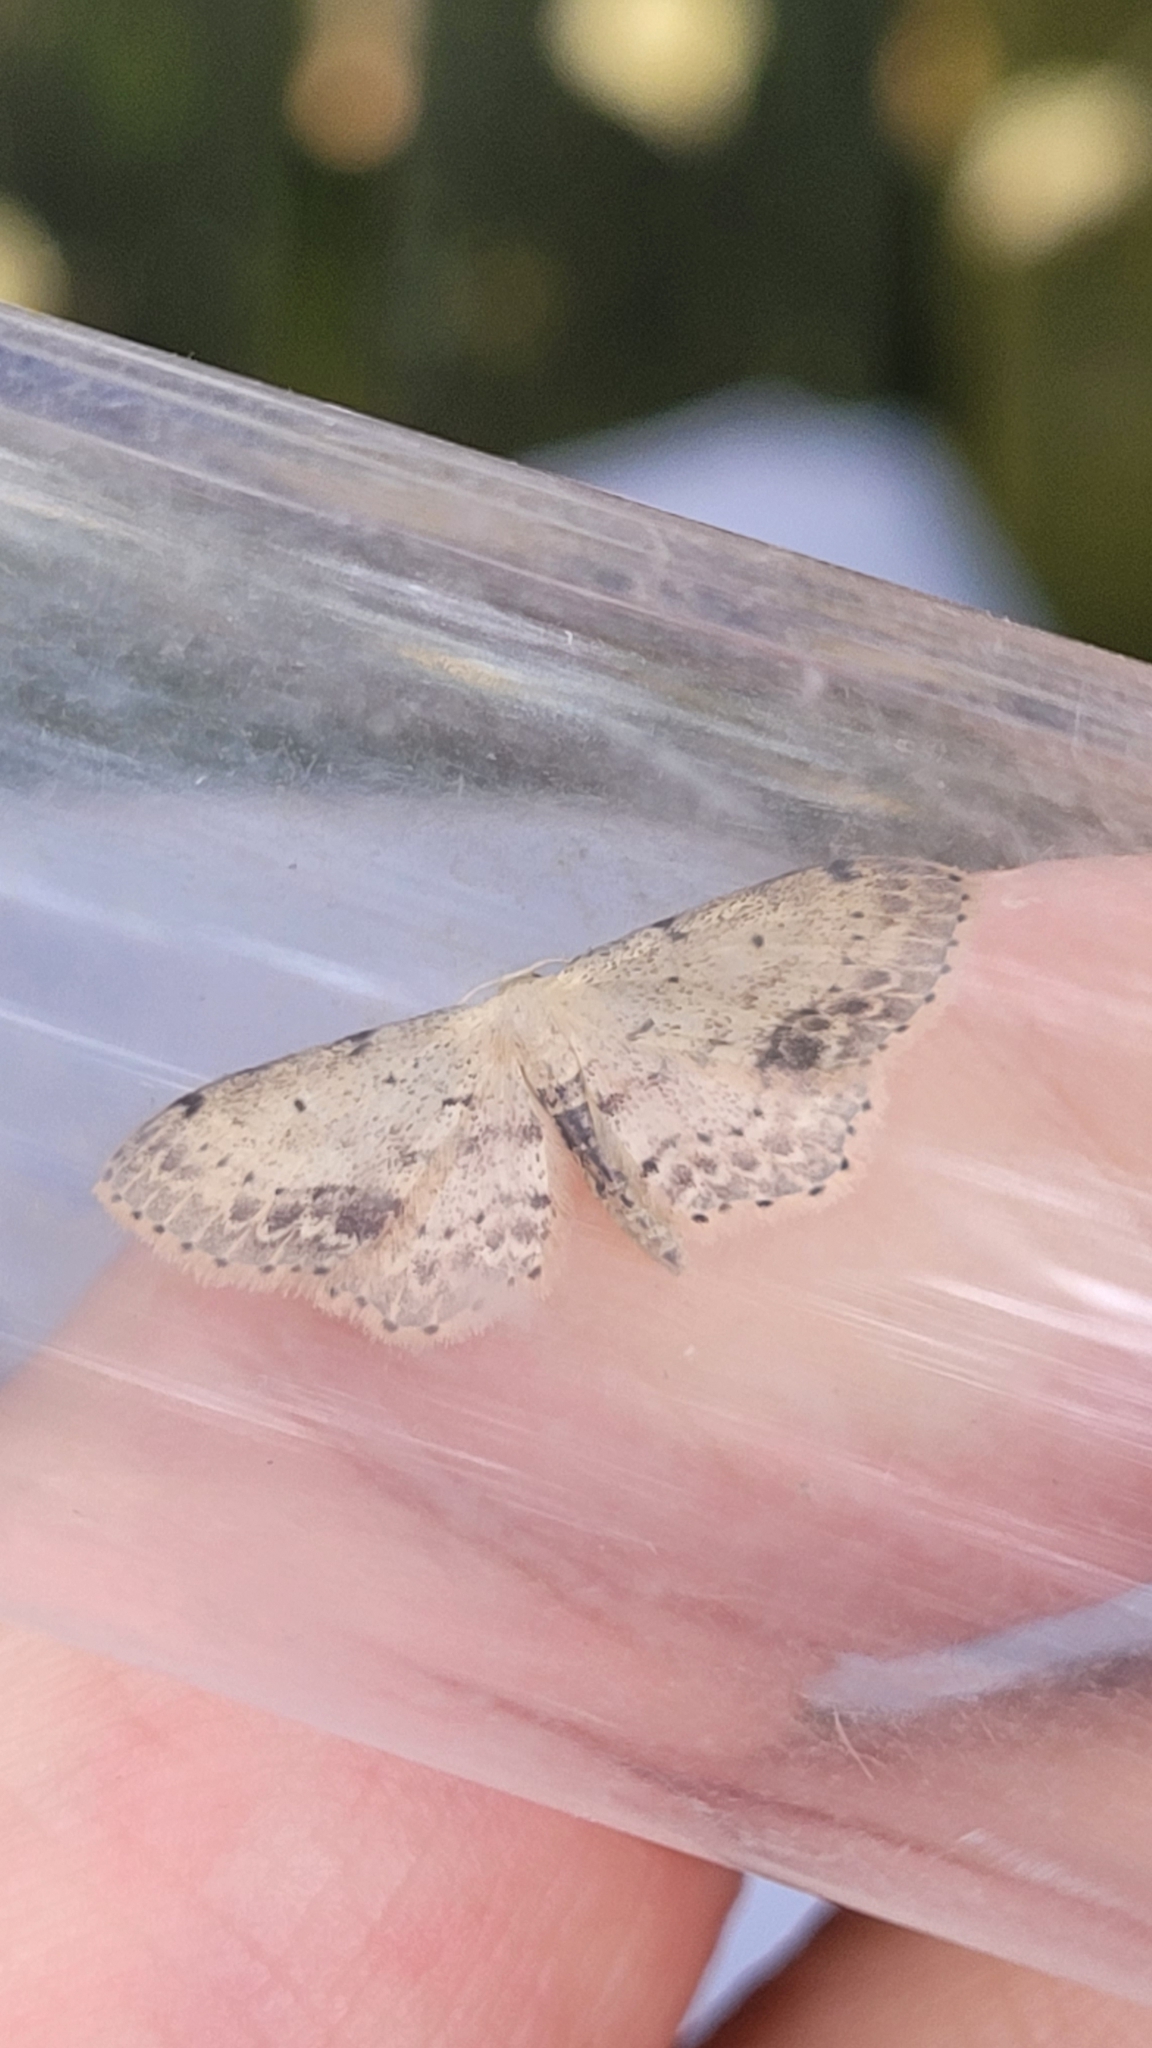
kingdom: Animalia
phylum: Arthropoda
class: Insecta
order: Lepidoptera
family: Geometridae
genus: Idaea
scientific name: Idaea dimidiata
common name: Single-dotted wave
